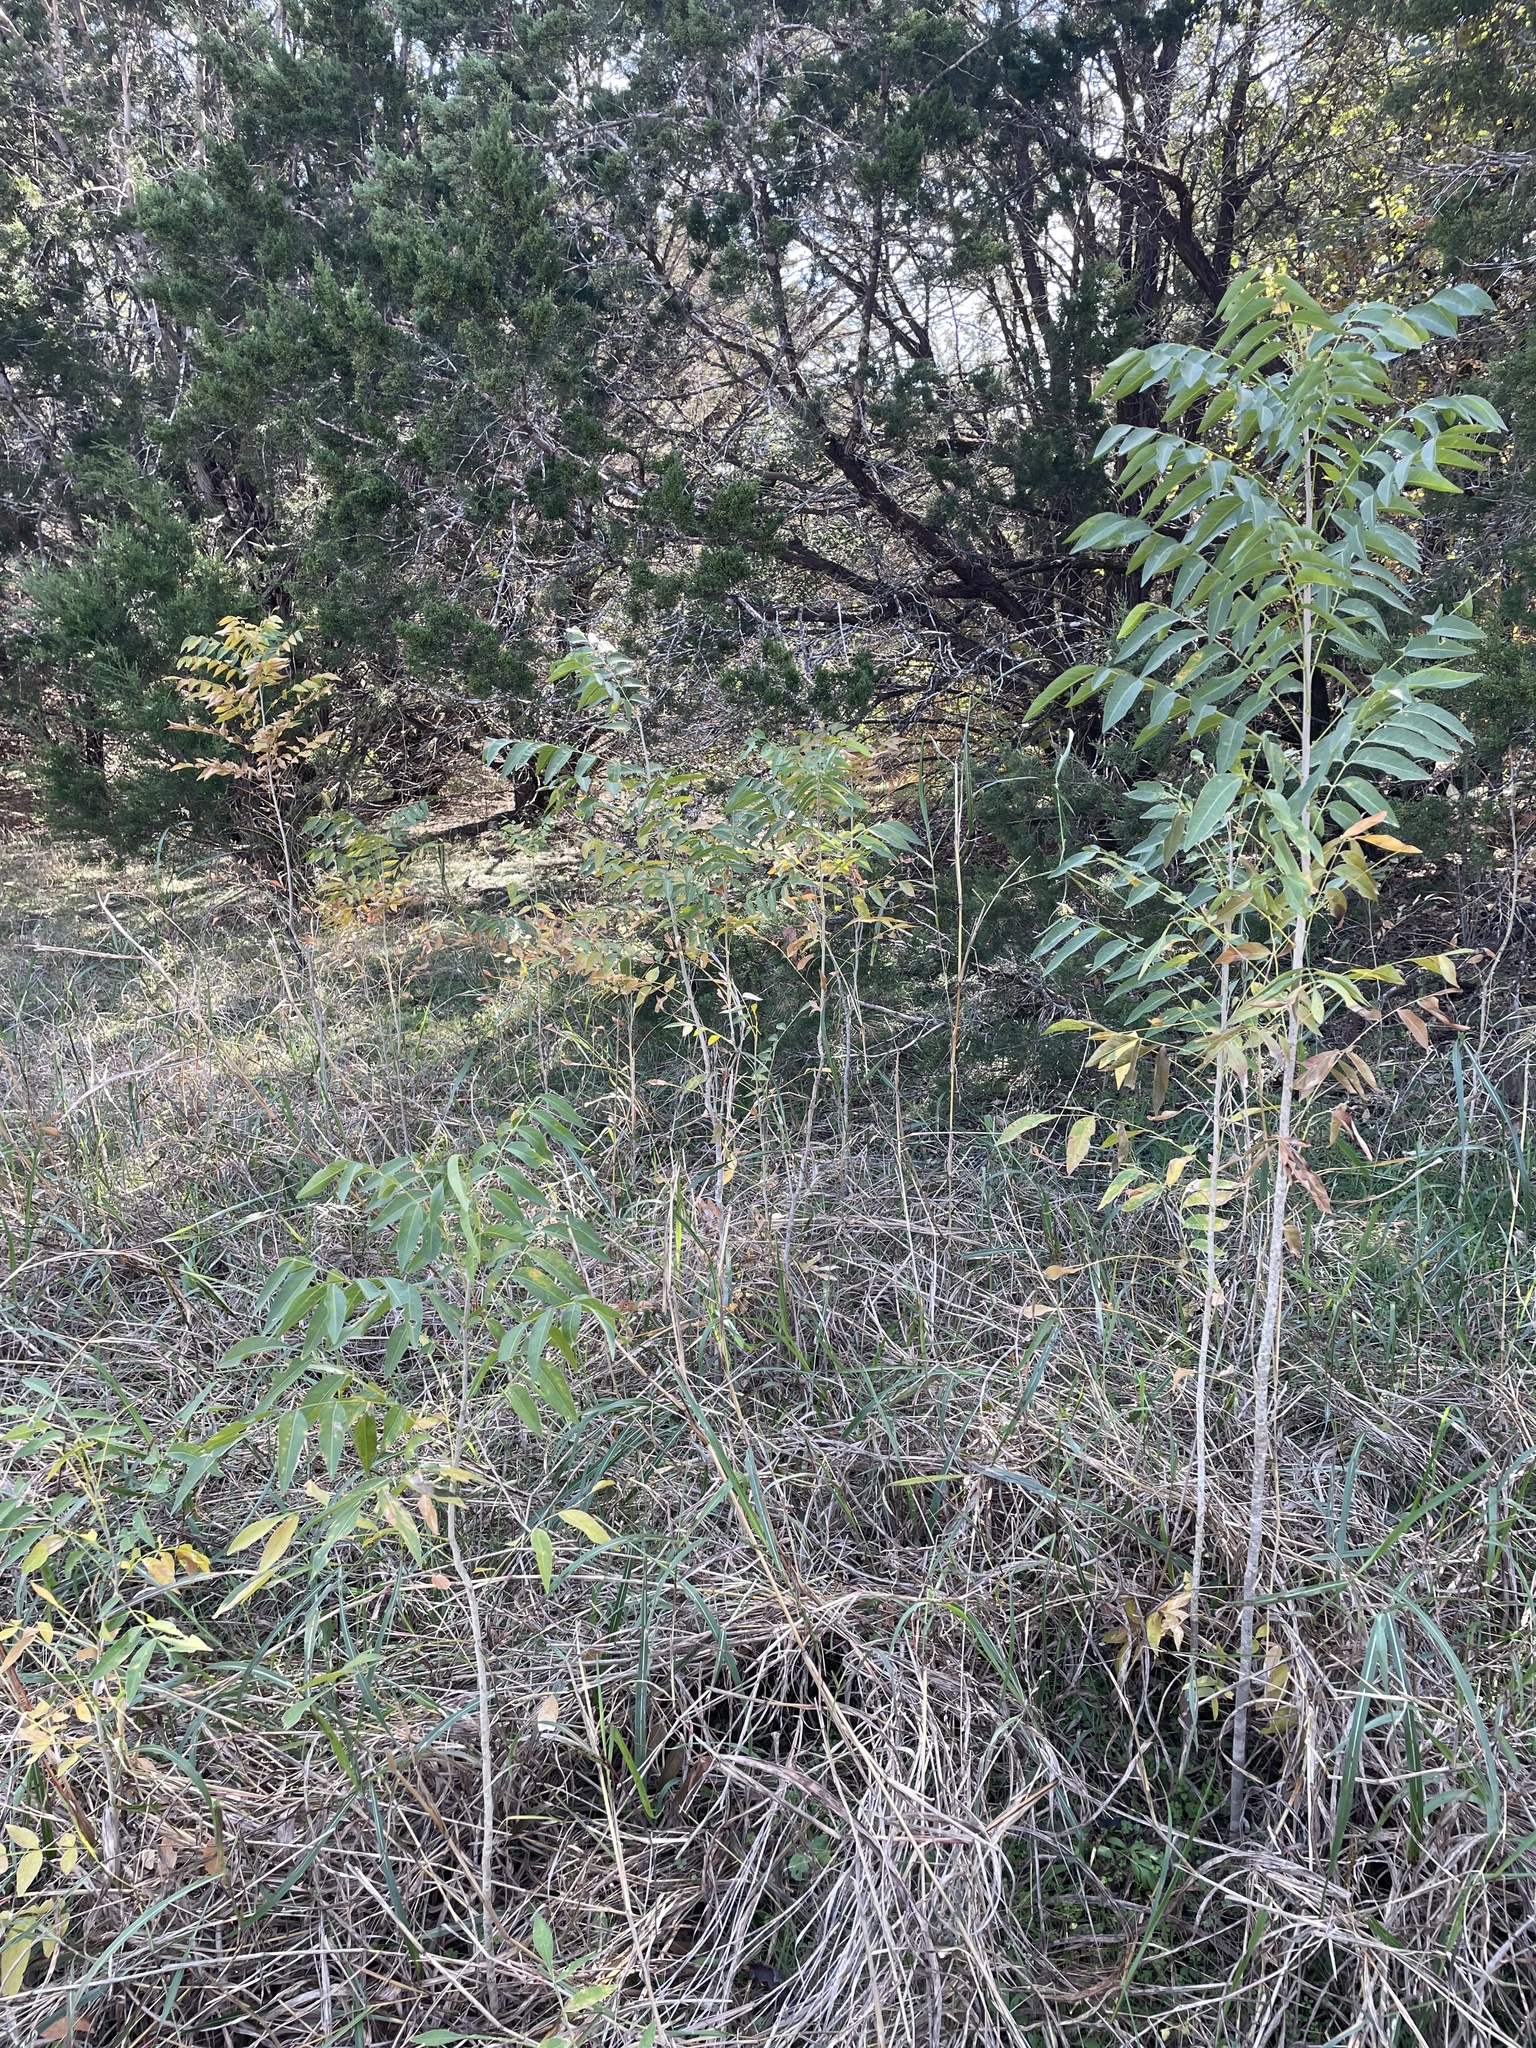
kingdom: Plantae
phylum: Tracheophyta
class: Magnoliopsida
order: Sapindales
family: Sapindaceae
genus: Sapindus
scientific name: Sapindus drummondii
